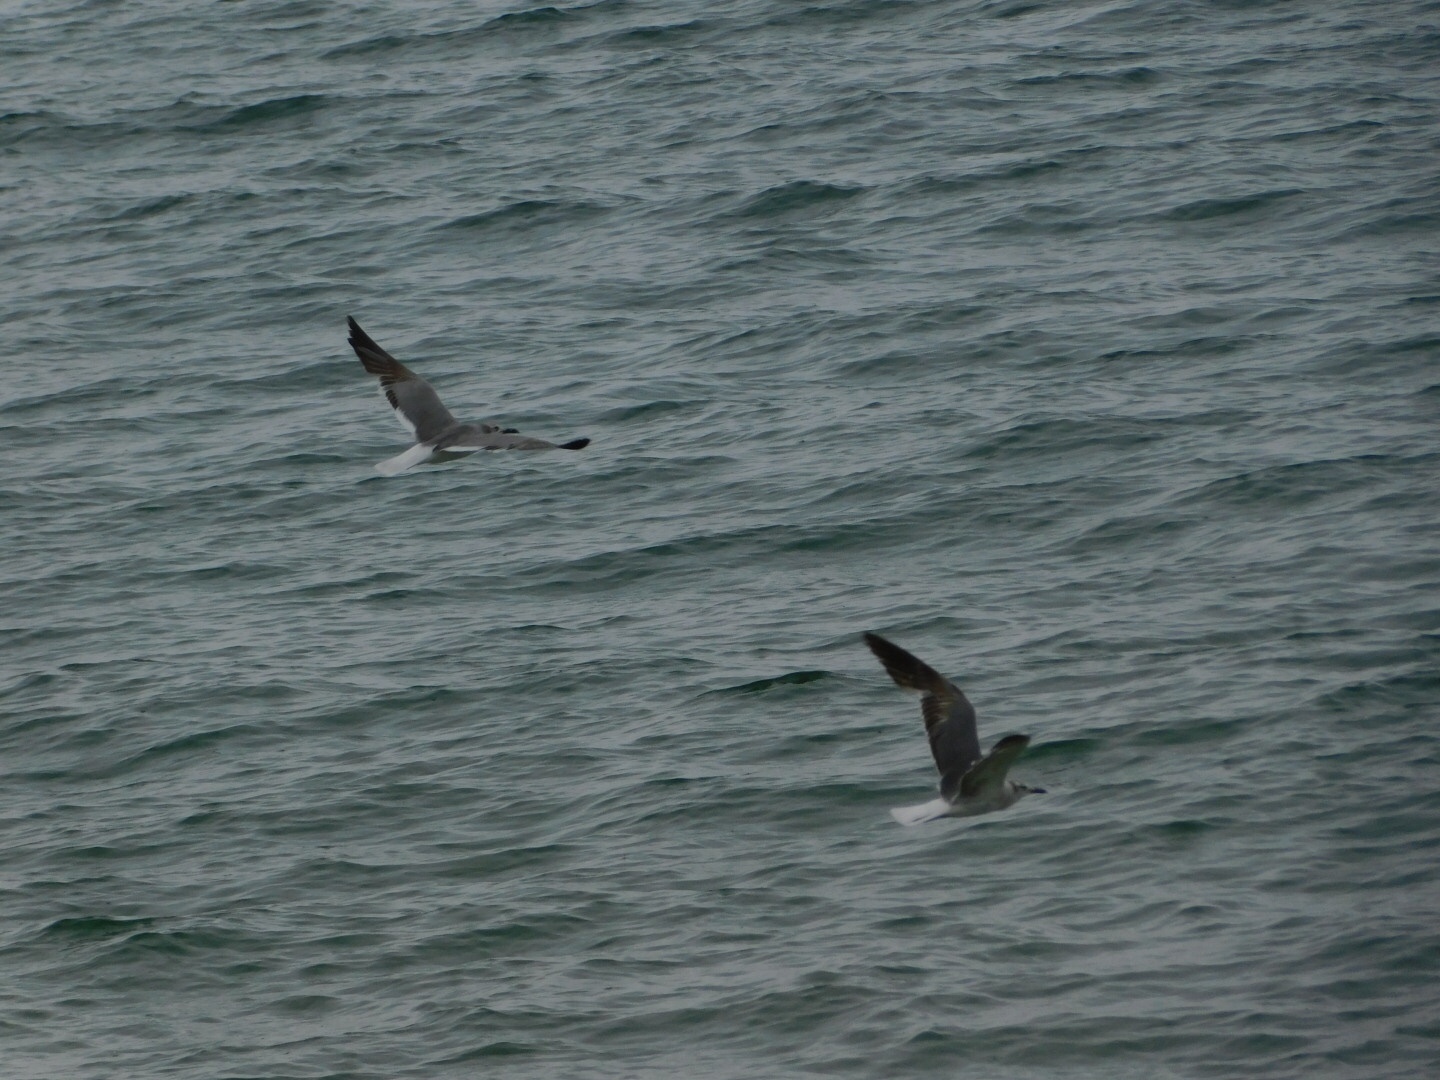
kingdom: Animalia
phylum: Chordata
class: Aves
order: Charadriiformes
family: Laridae
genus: Leucophaeus
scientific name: Leucophaeus atricilla
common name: Laughing gull
